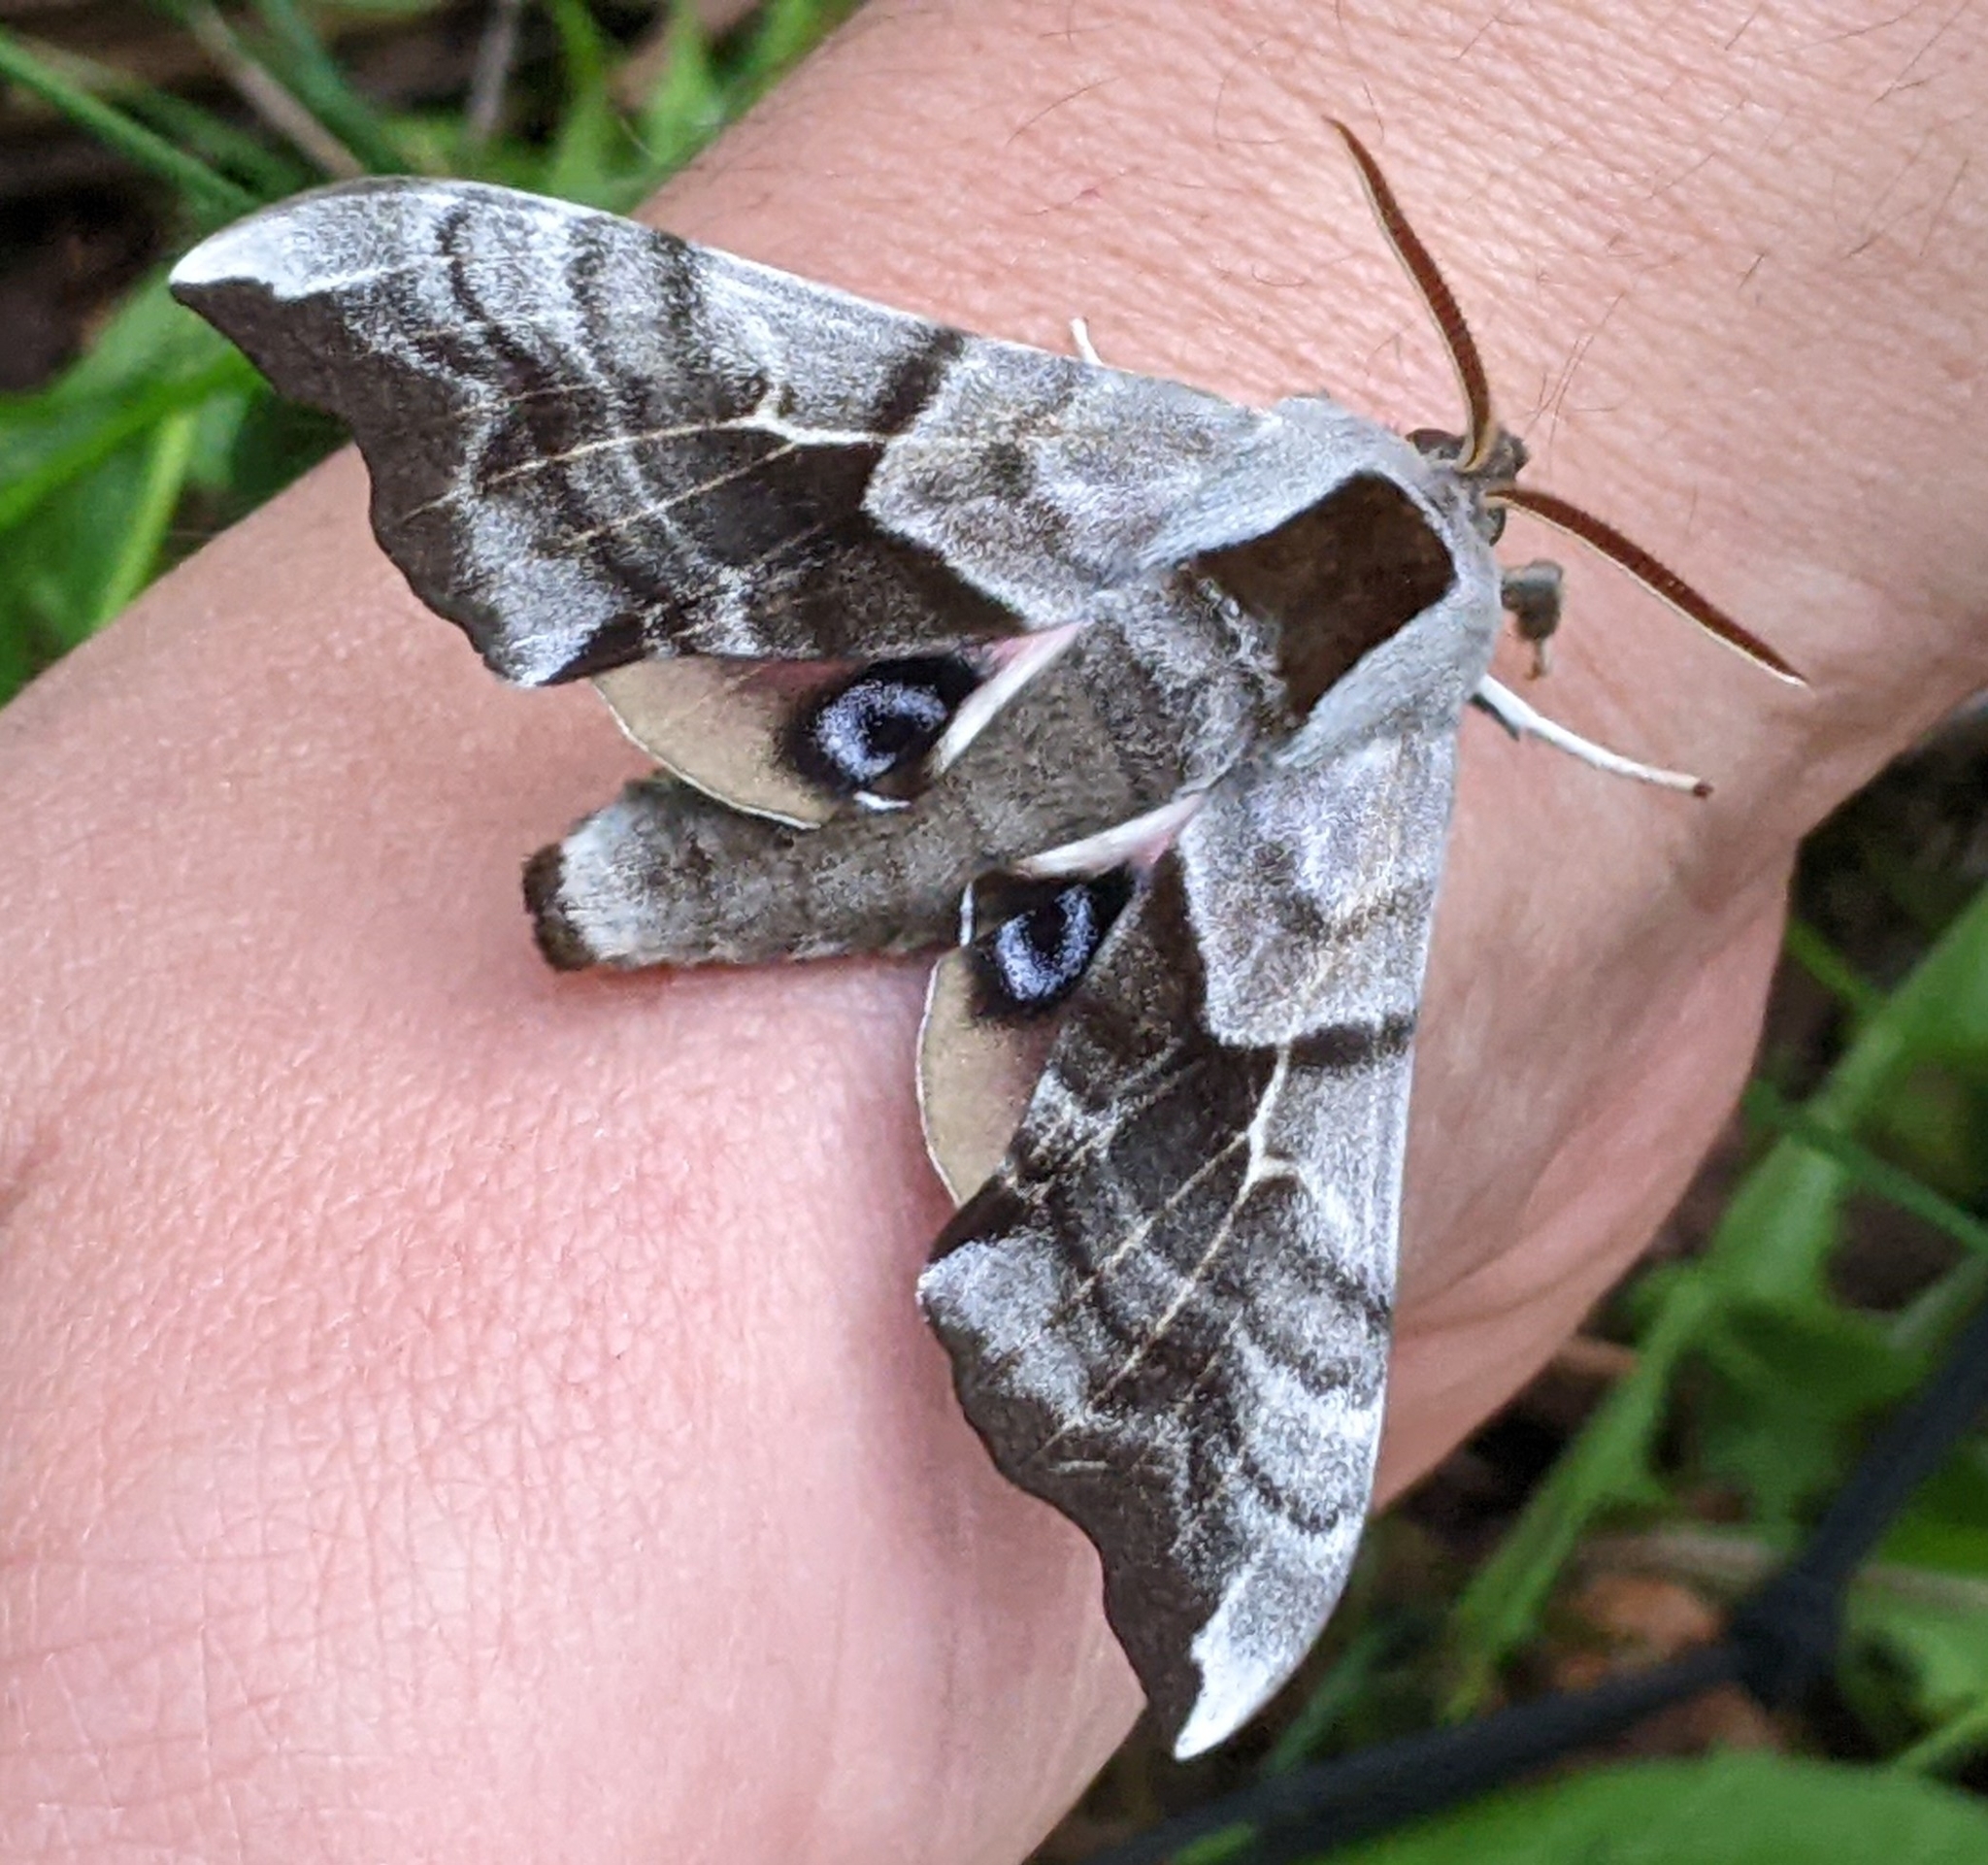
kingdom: Animalia
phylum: Arthropoda
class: Insecta
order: Lepidoptera
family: Sphingidae
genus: Smerinthus
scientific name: Smerinthus cerisyi
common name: Cerisy's sphinx moth
